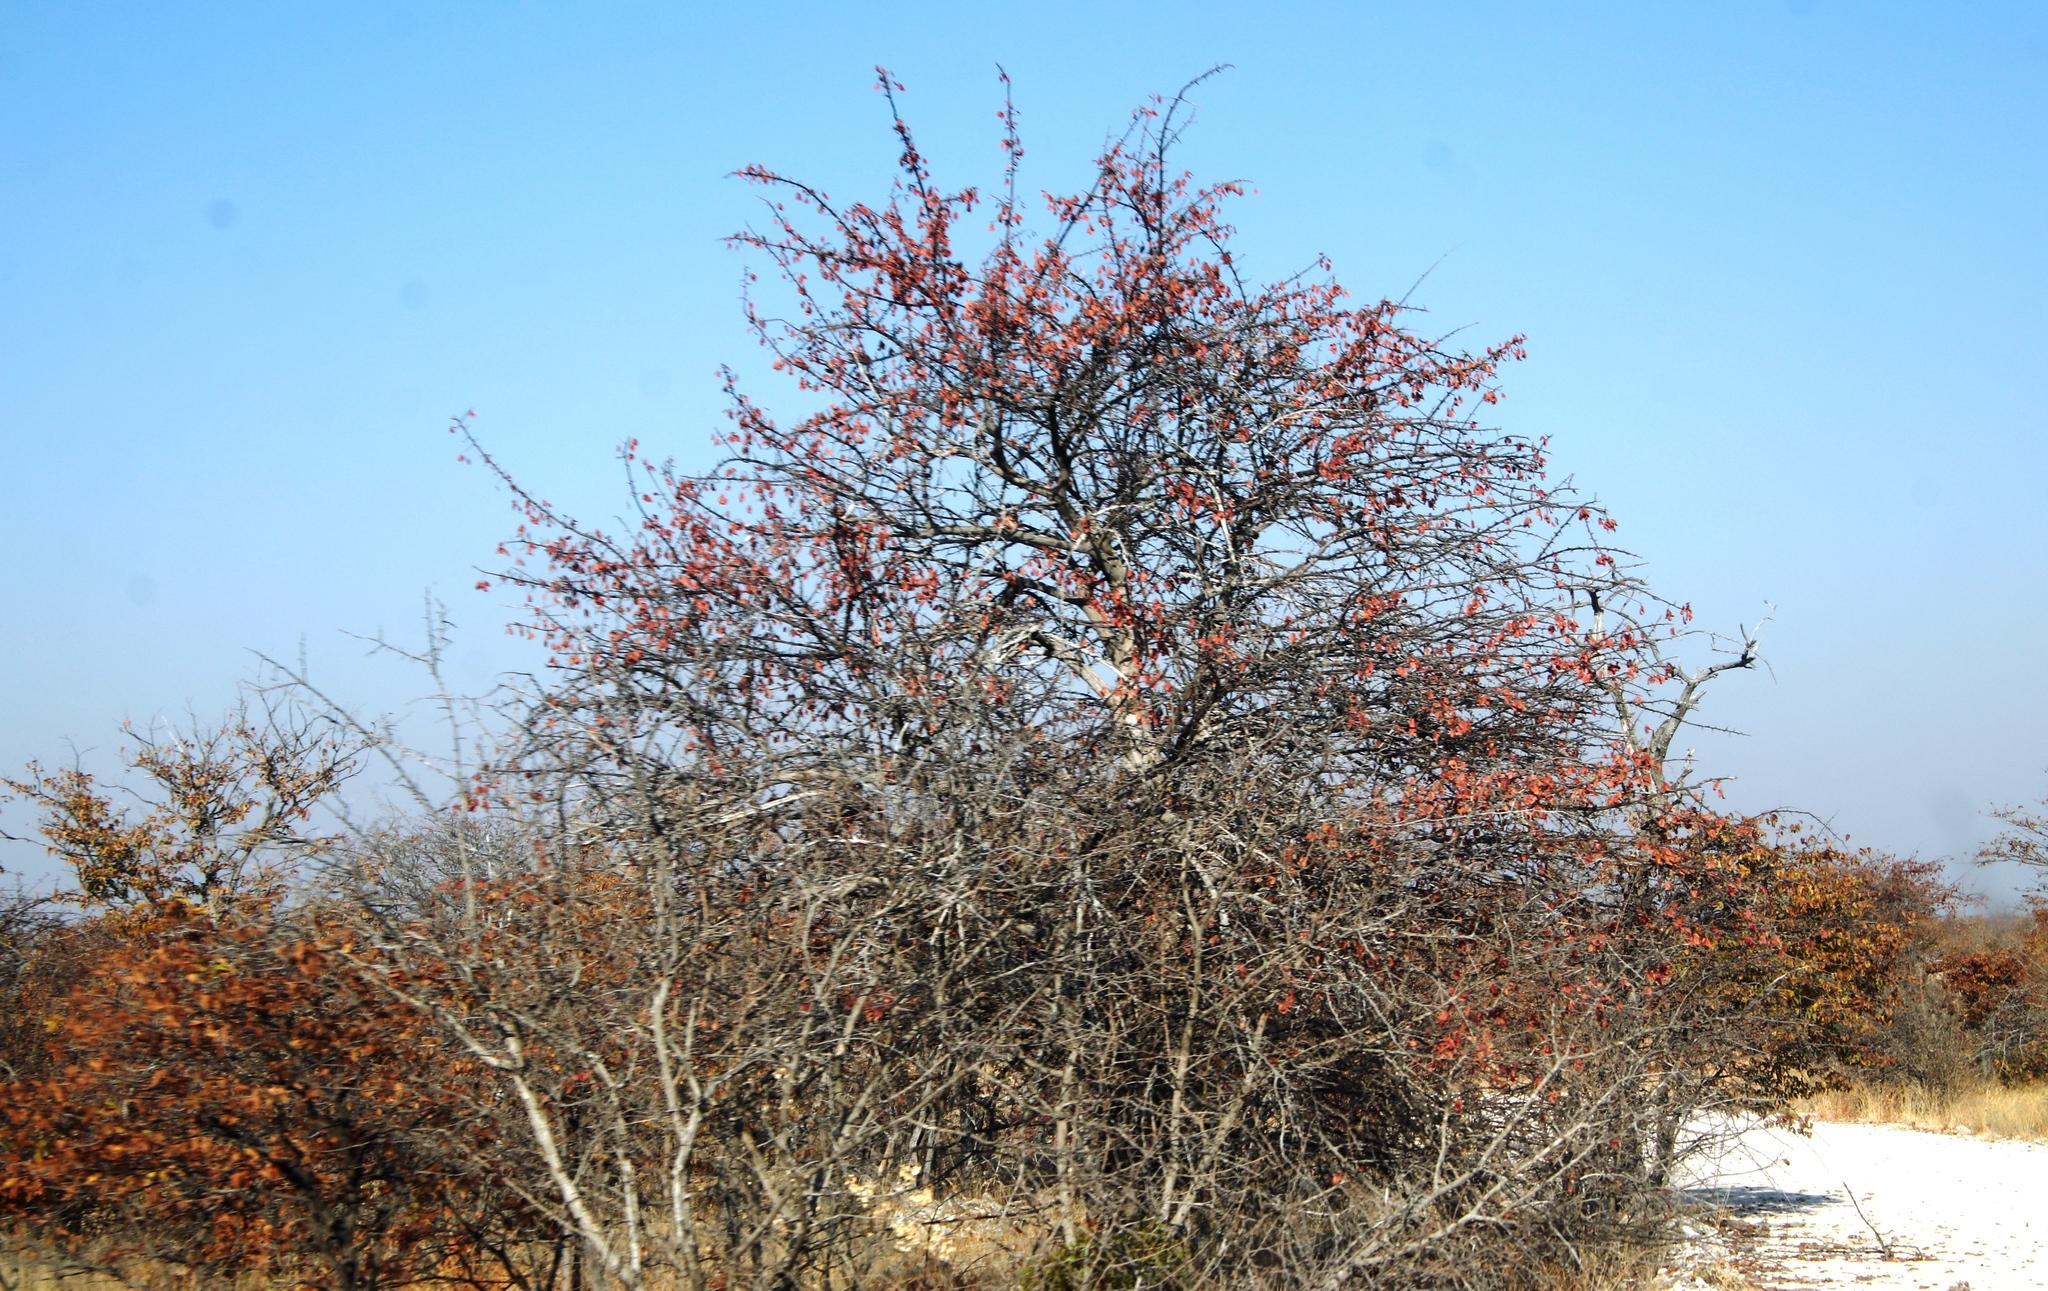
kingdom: Plantae
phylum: Tracheophyta
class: Magnoliopsida
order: Myrtales
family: Combretaceae
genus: Terminalia
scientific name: Terminalia prunioides
